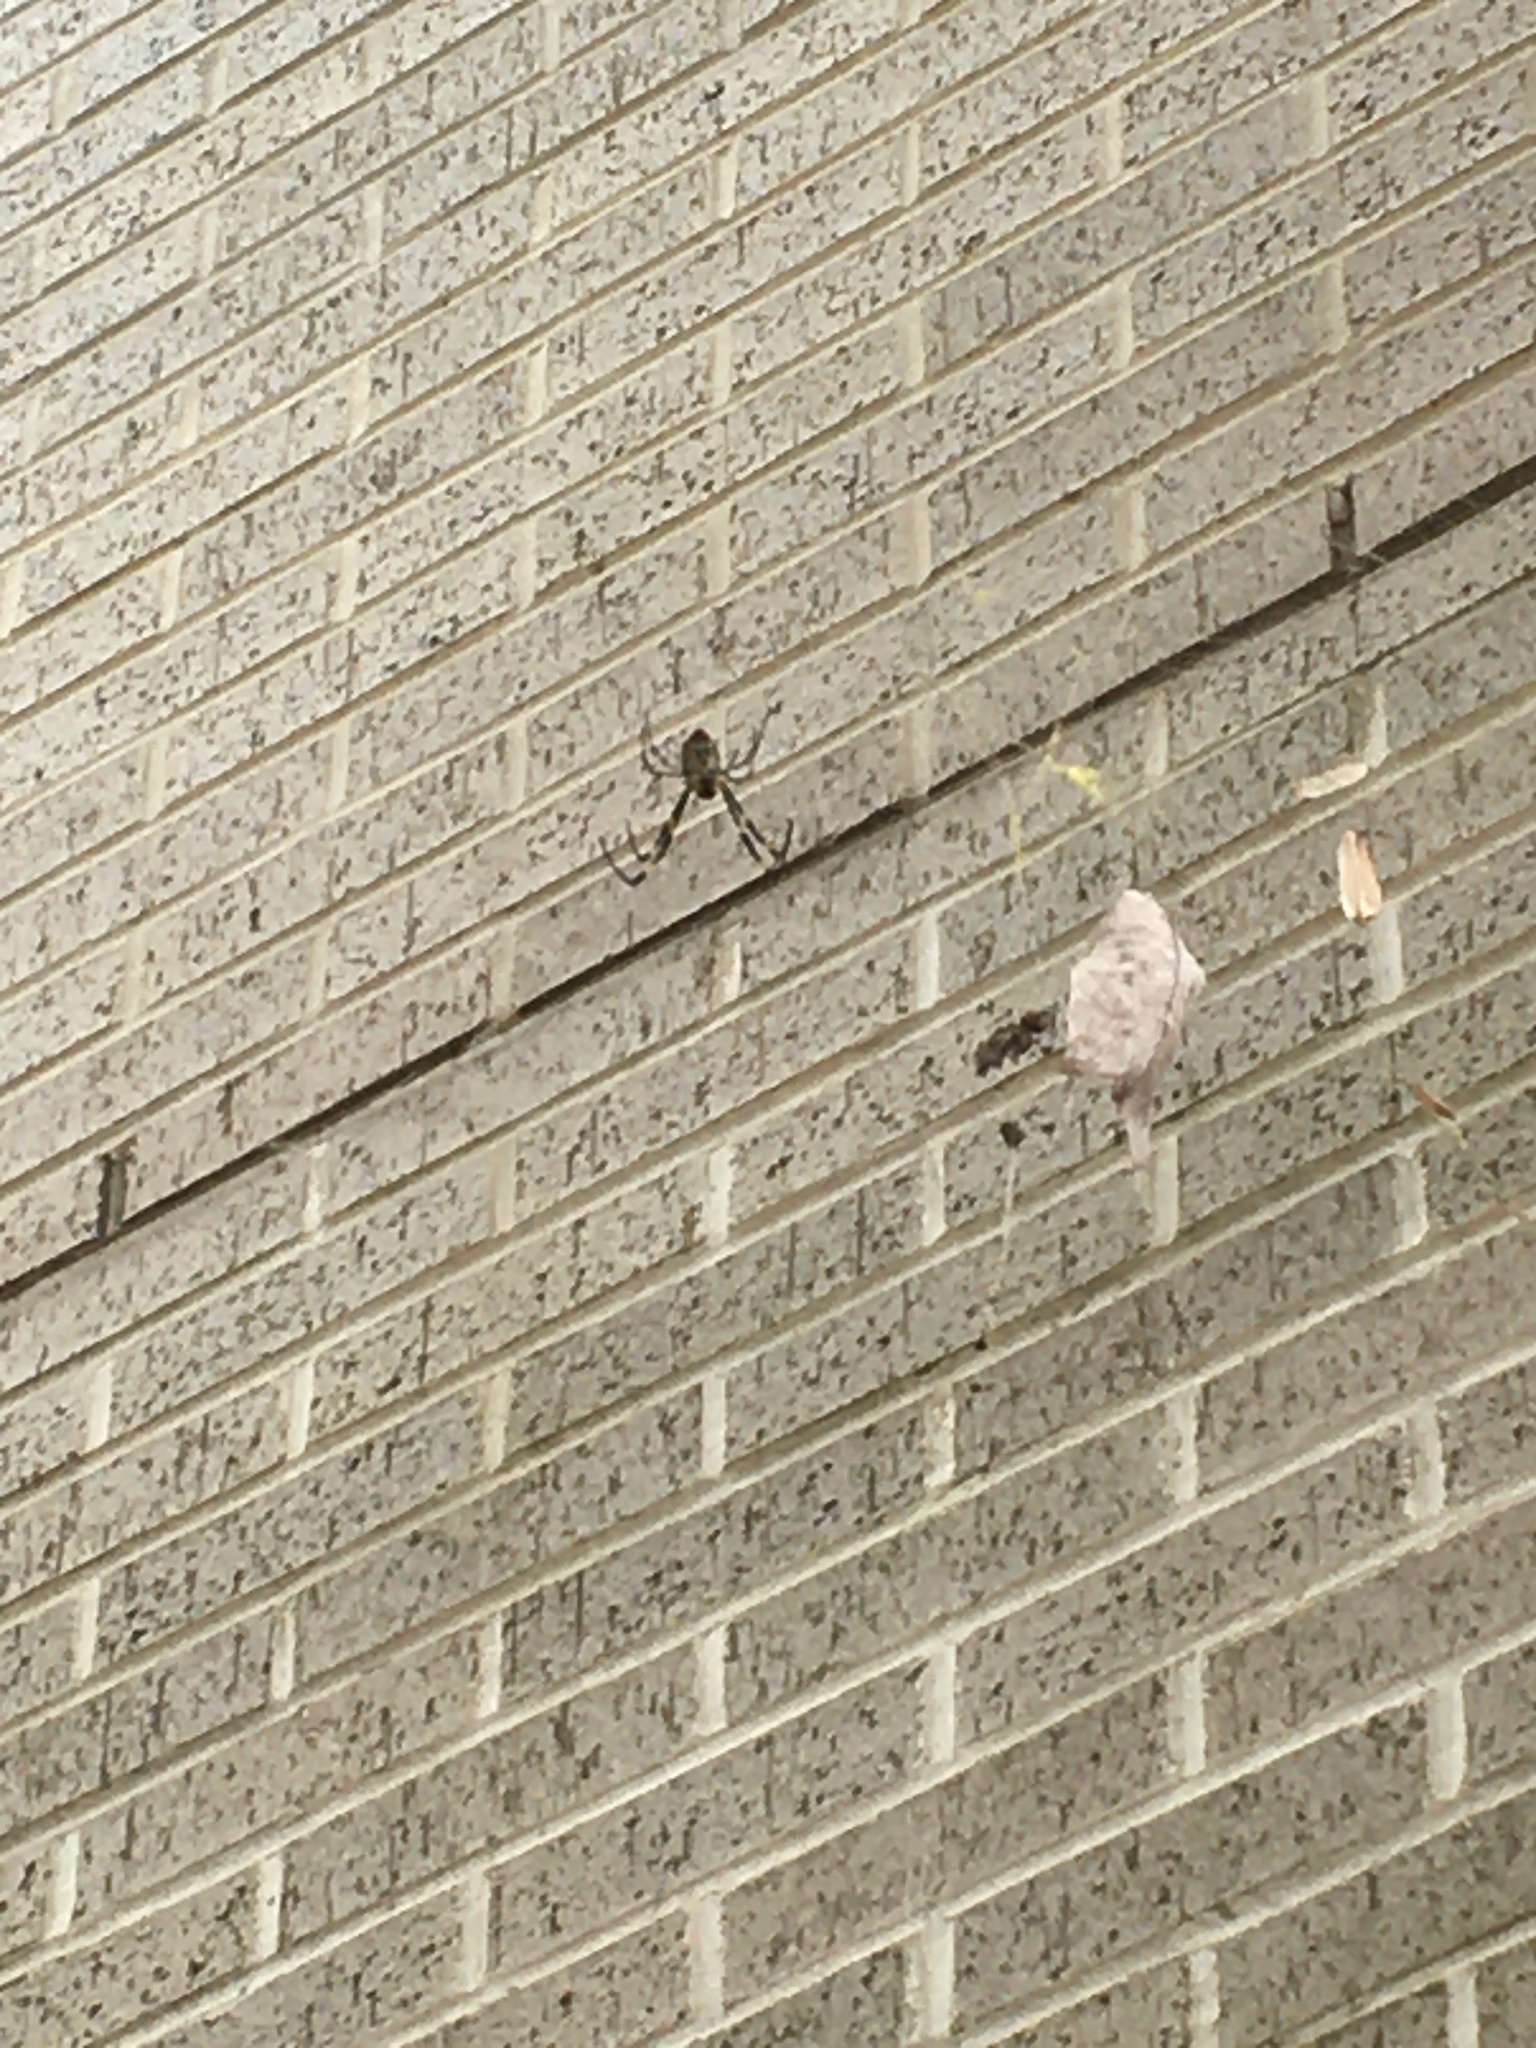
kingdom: Animalia
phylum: Arthropoda
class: Arachnida
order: Araneae
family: Araneidae
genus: Trichonephila
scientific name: Trichonephila clavata
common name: Jorō spider
